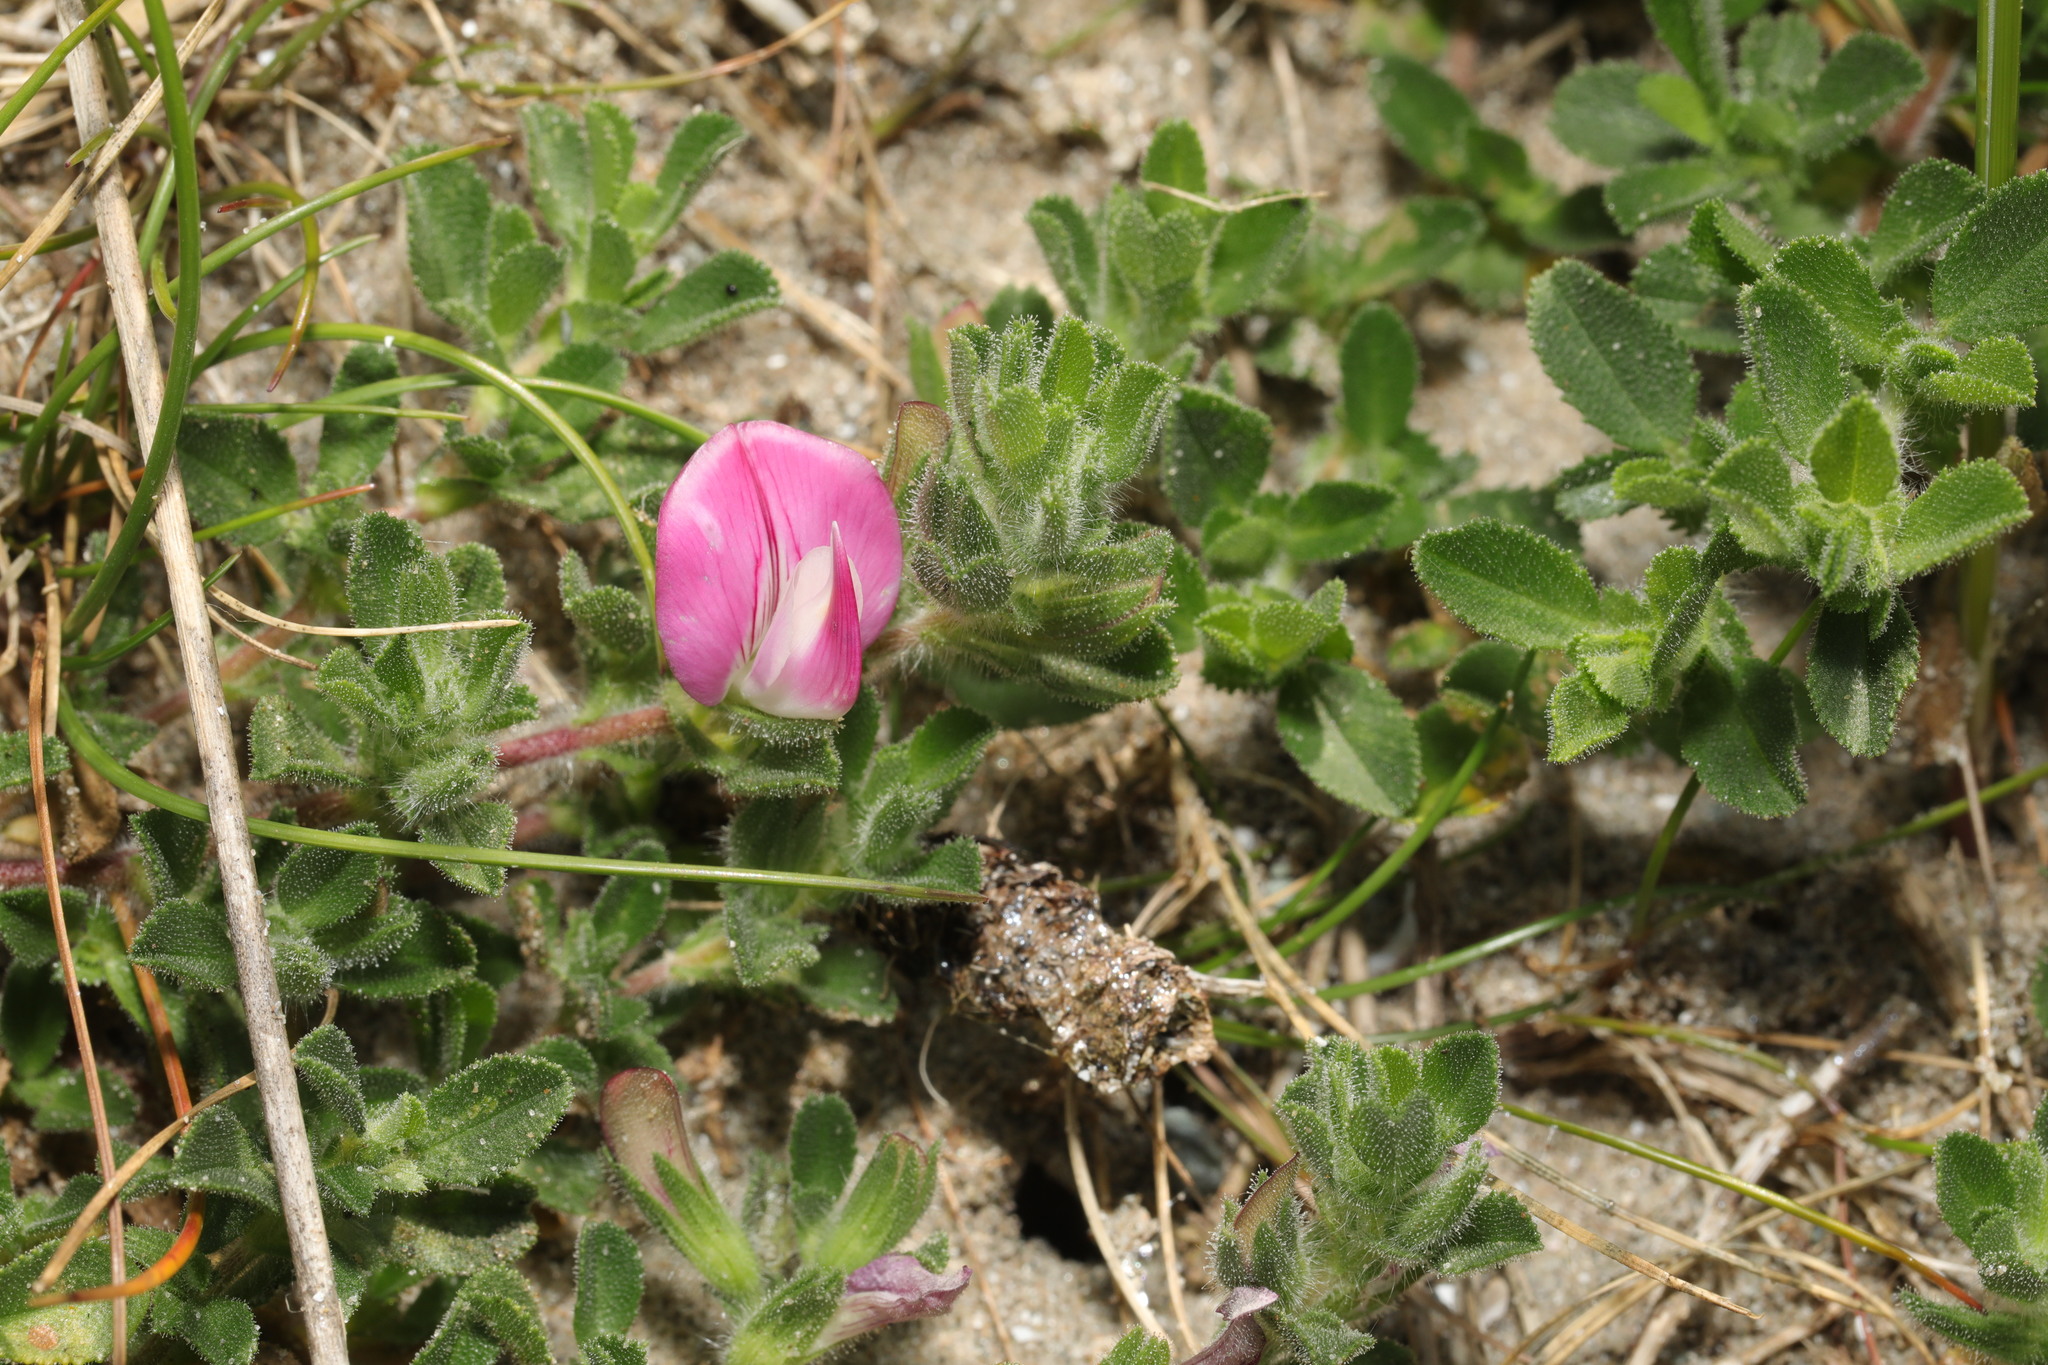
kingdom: Plantae
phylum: Tracheophyta
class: Magnoliopsida
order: Fabales
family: Fabaceae
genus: Ononis
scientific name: Ononis spinosa
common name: Spiny restharrow
